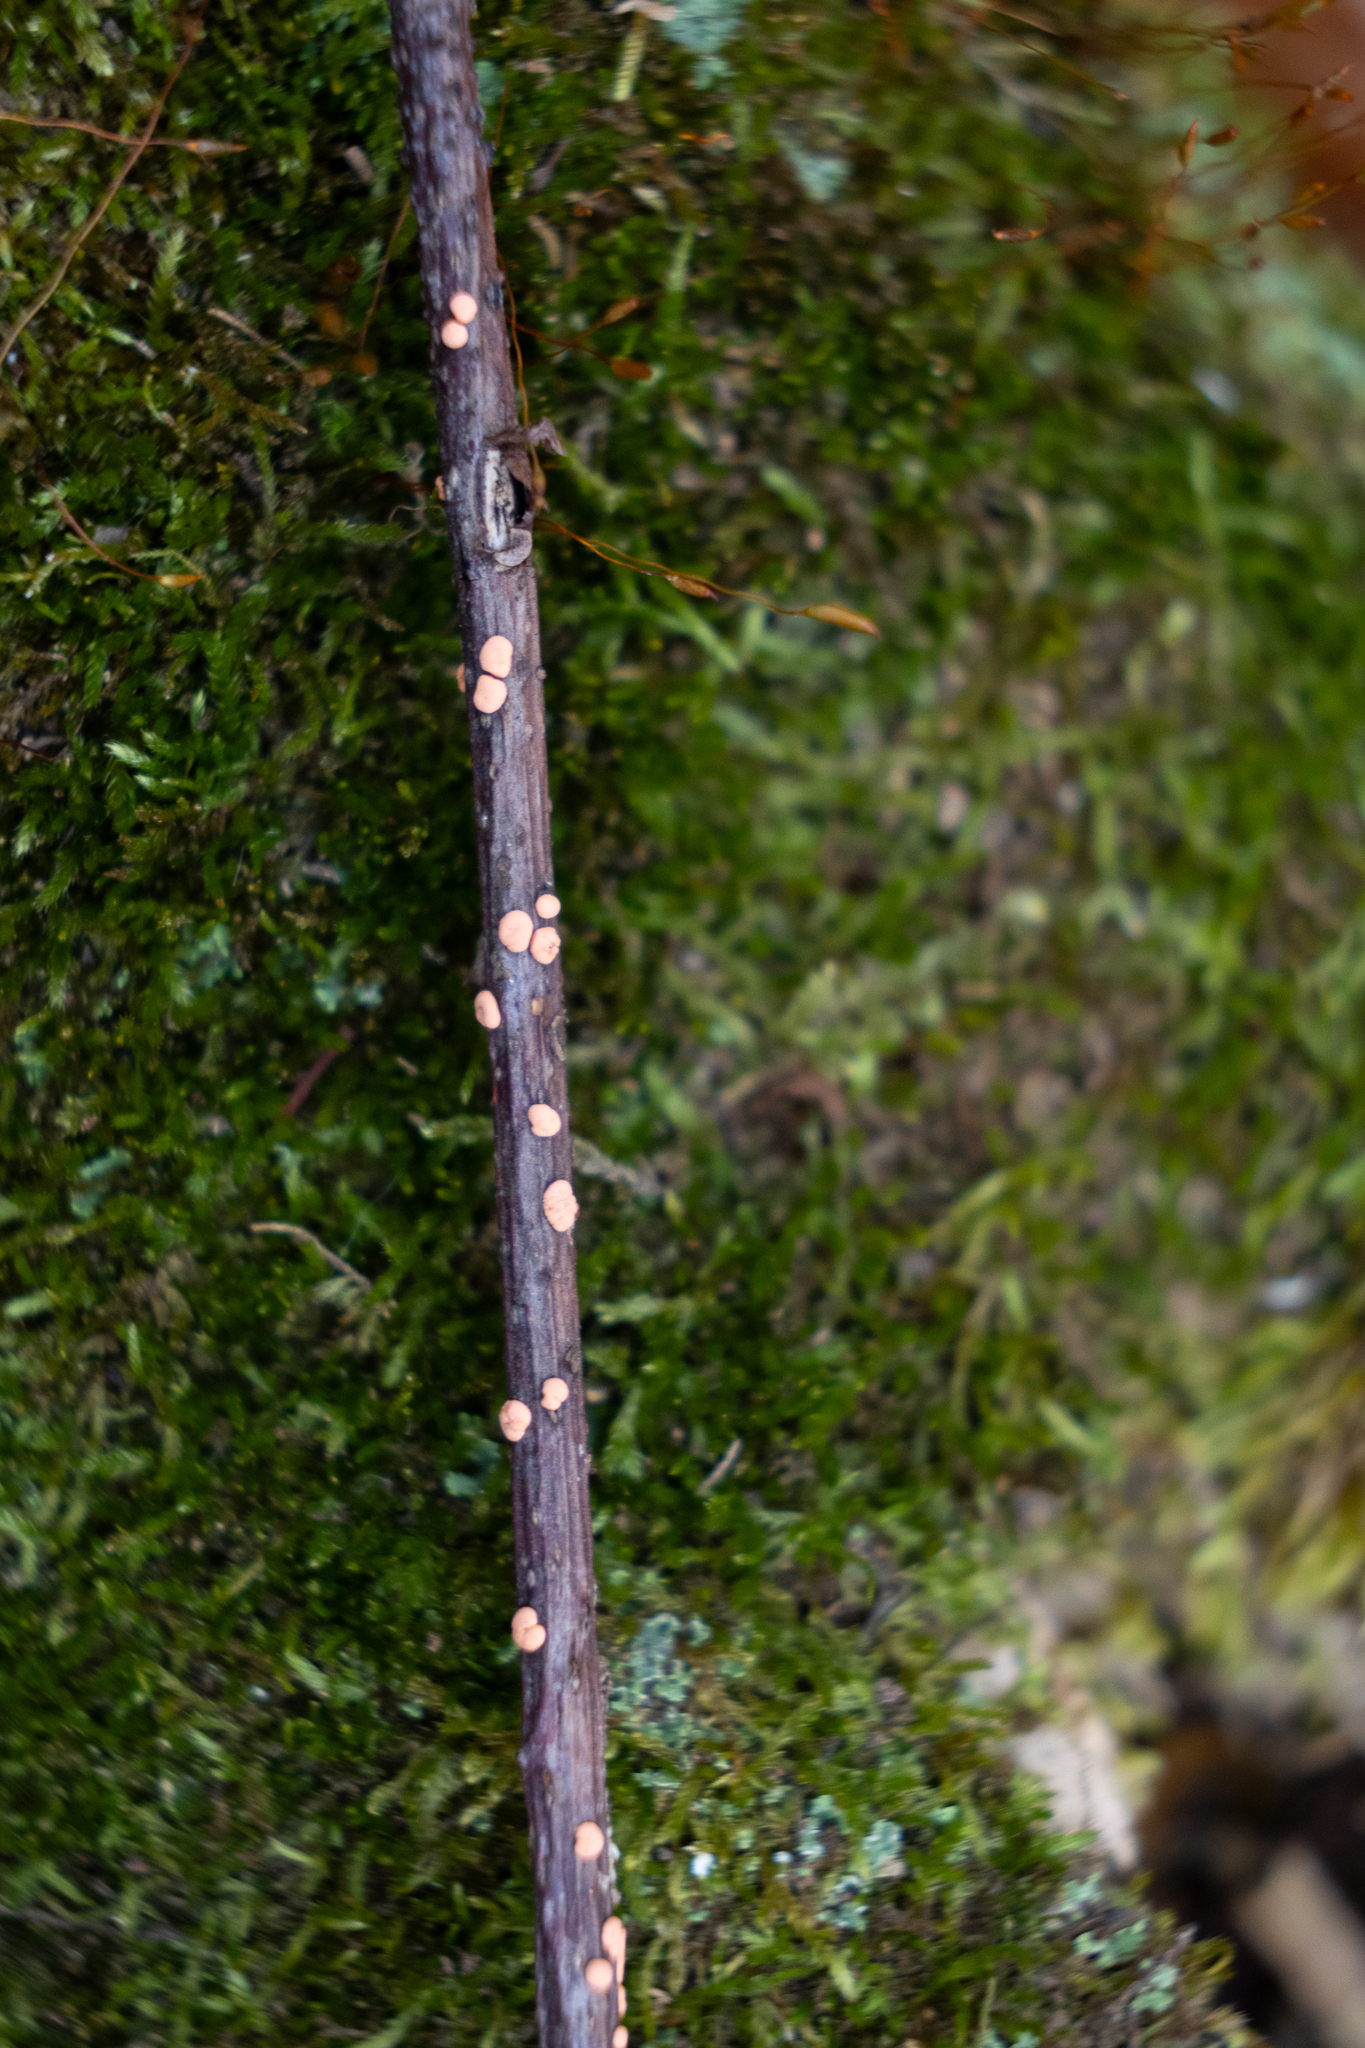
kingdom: Fungi
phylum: Ascomycota
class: Sordariomycetes
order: Hypocreales
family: Nectriaceae
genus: Nectria
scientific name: Nectria cinnabarina
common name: Coral spot
